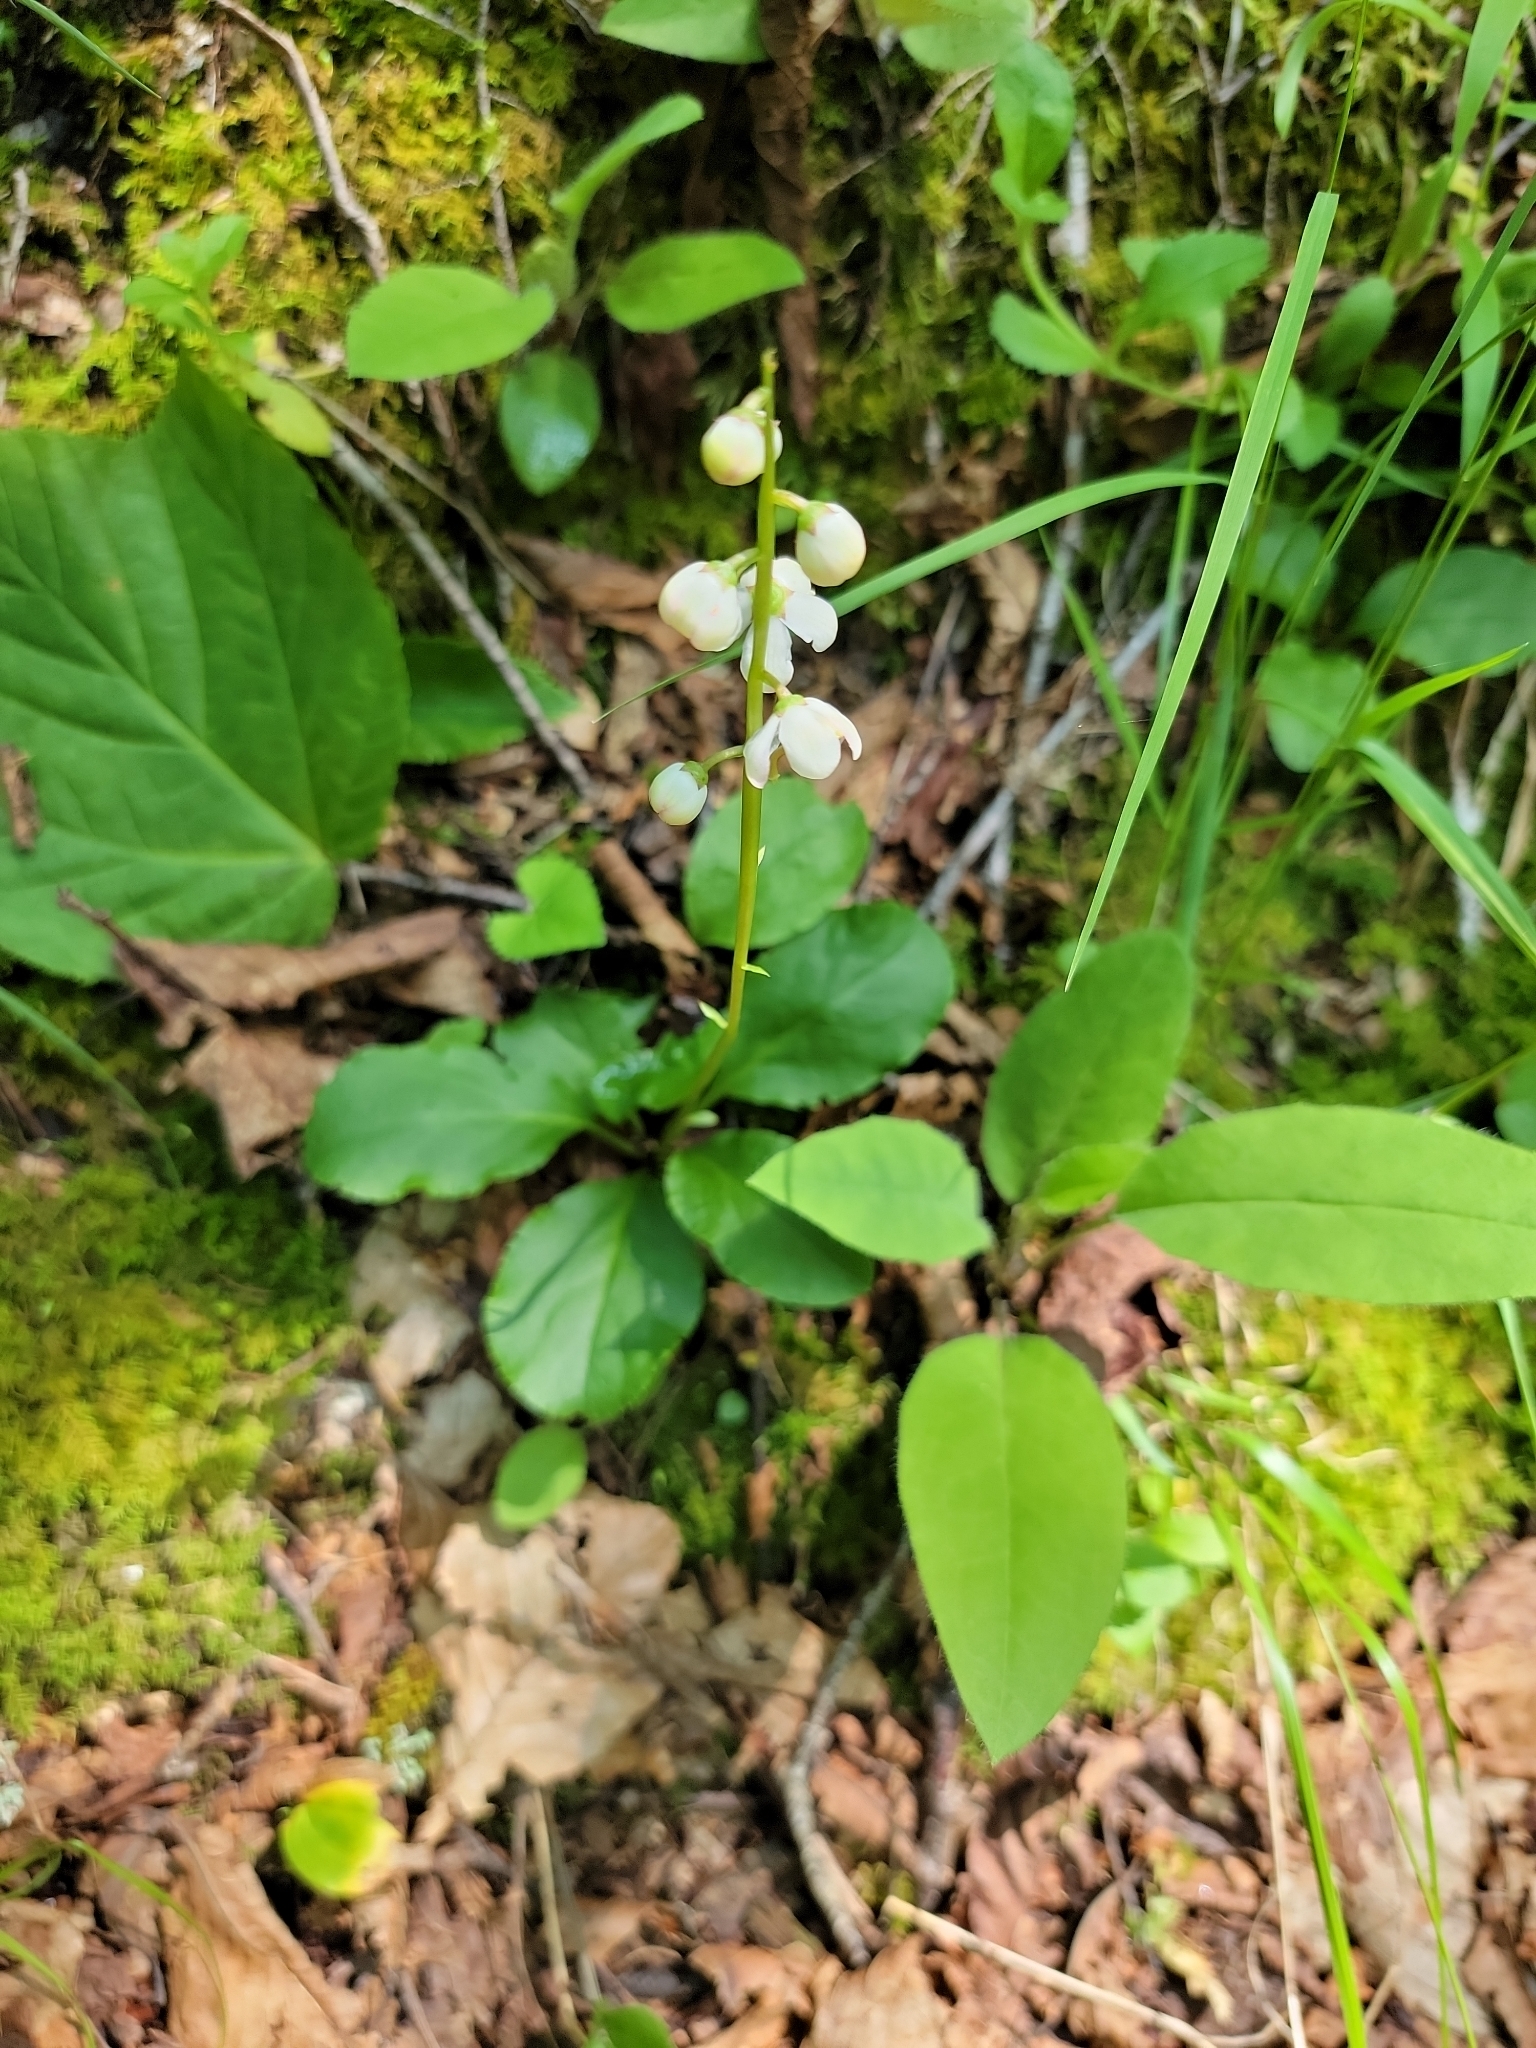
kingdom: Plantae
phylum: Tracheophyta
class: Magnoliopsida
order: Ericales
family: Ericaceae
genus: Pyrola
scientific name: Pyrola elliptica
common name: Shinleaf
